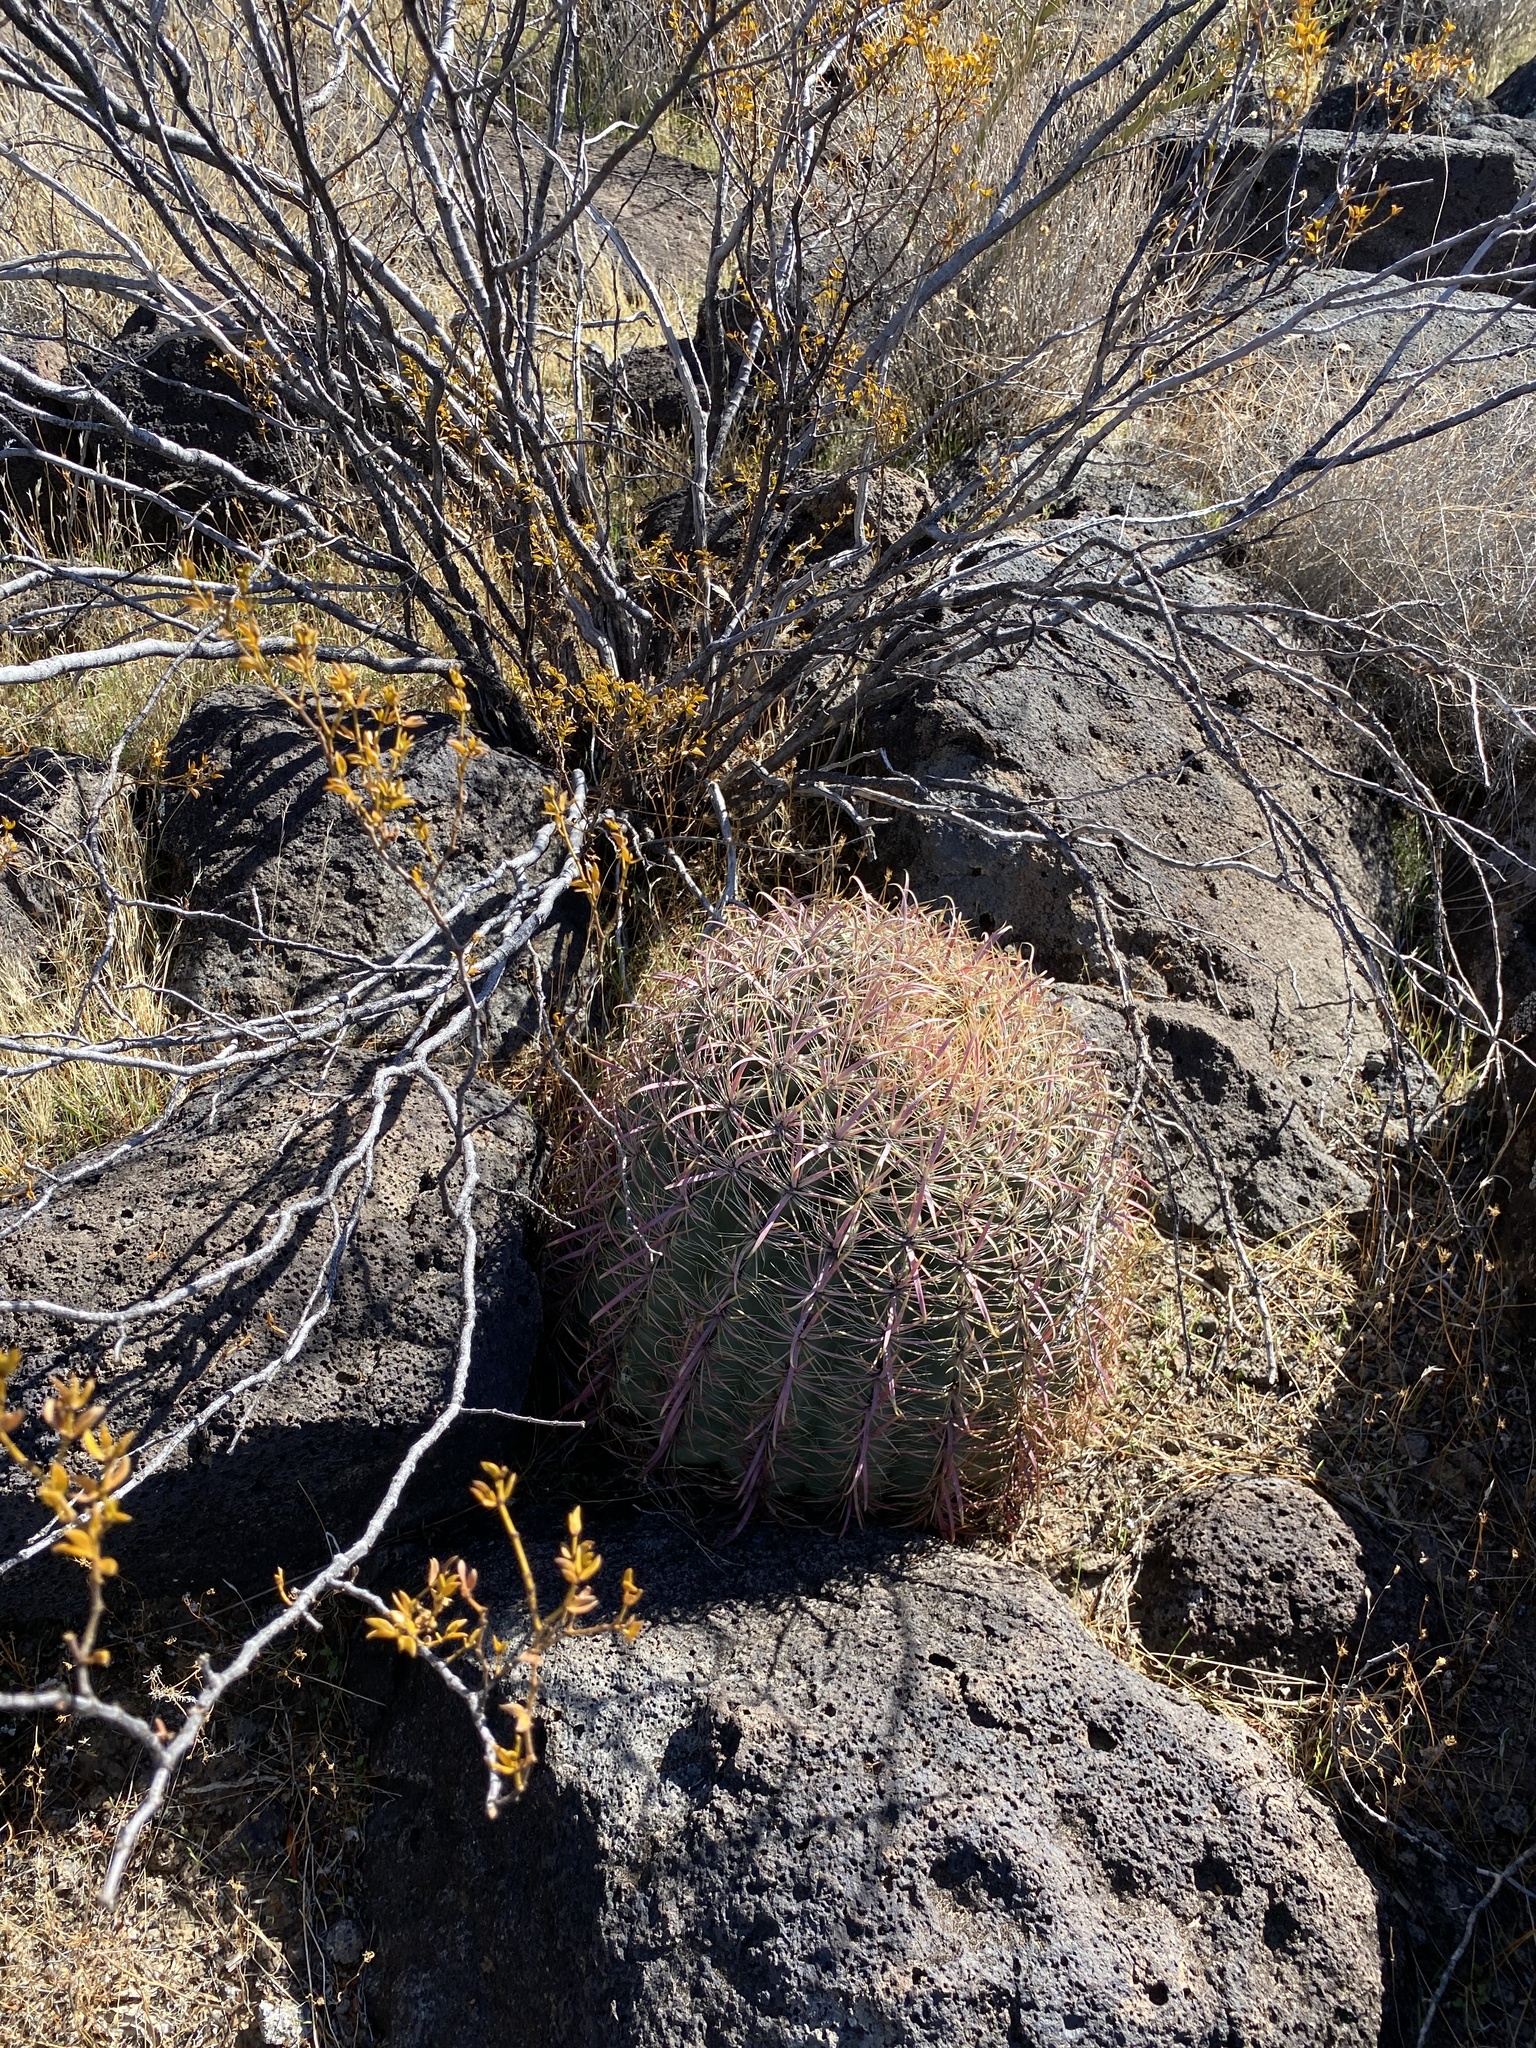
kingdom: Plantae
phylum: Tracheophyta
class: Magnoliopsida
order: Caryophyllales
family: Cactaceae
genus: Ferocactus
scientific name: Ferocactus cylindraceus
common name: California barrel cactus
